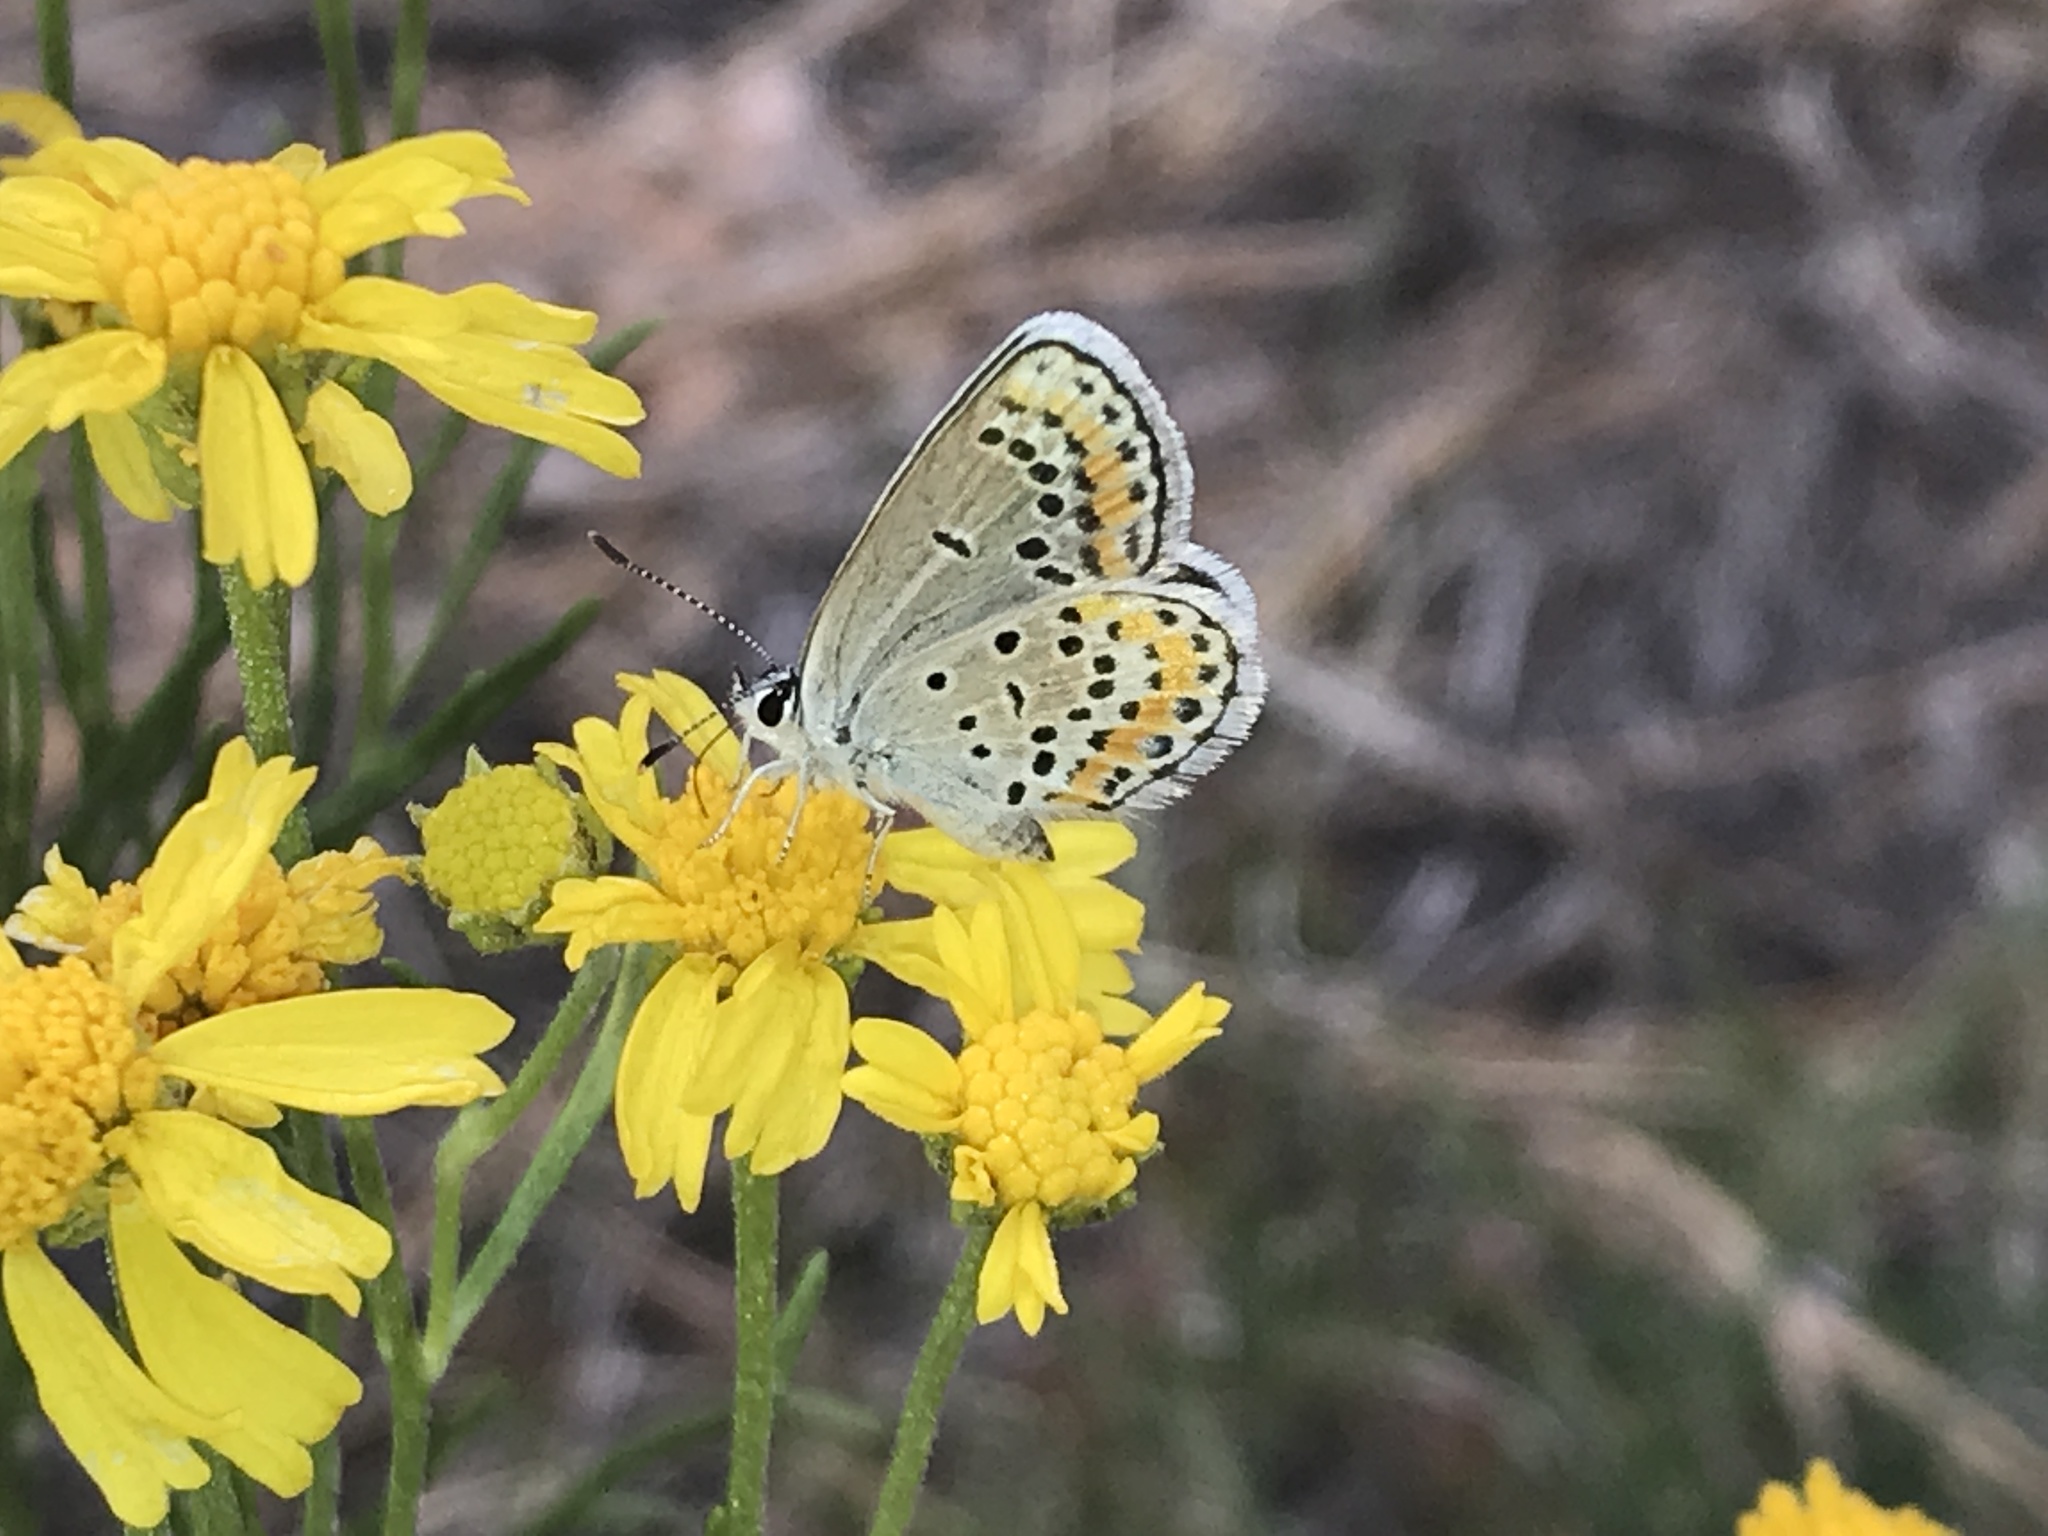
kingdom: Animalia
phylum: Arthropoda
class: Insecta
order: Lepidoptera
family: Lycaenidae
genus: Lycaeides
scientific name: Lycaeides melissa
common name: Melissa blue
